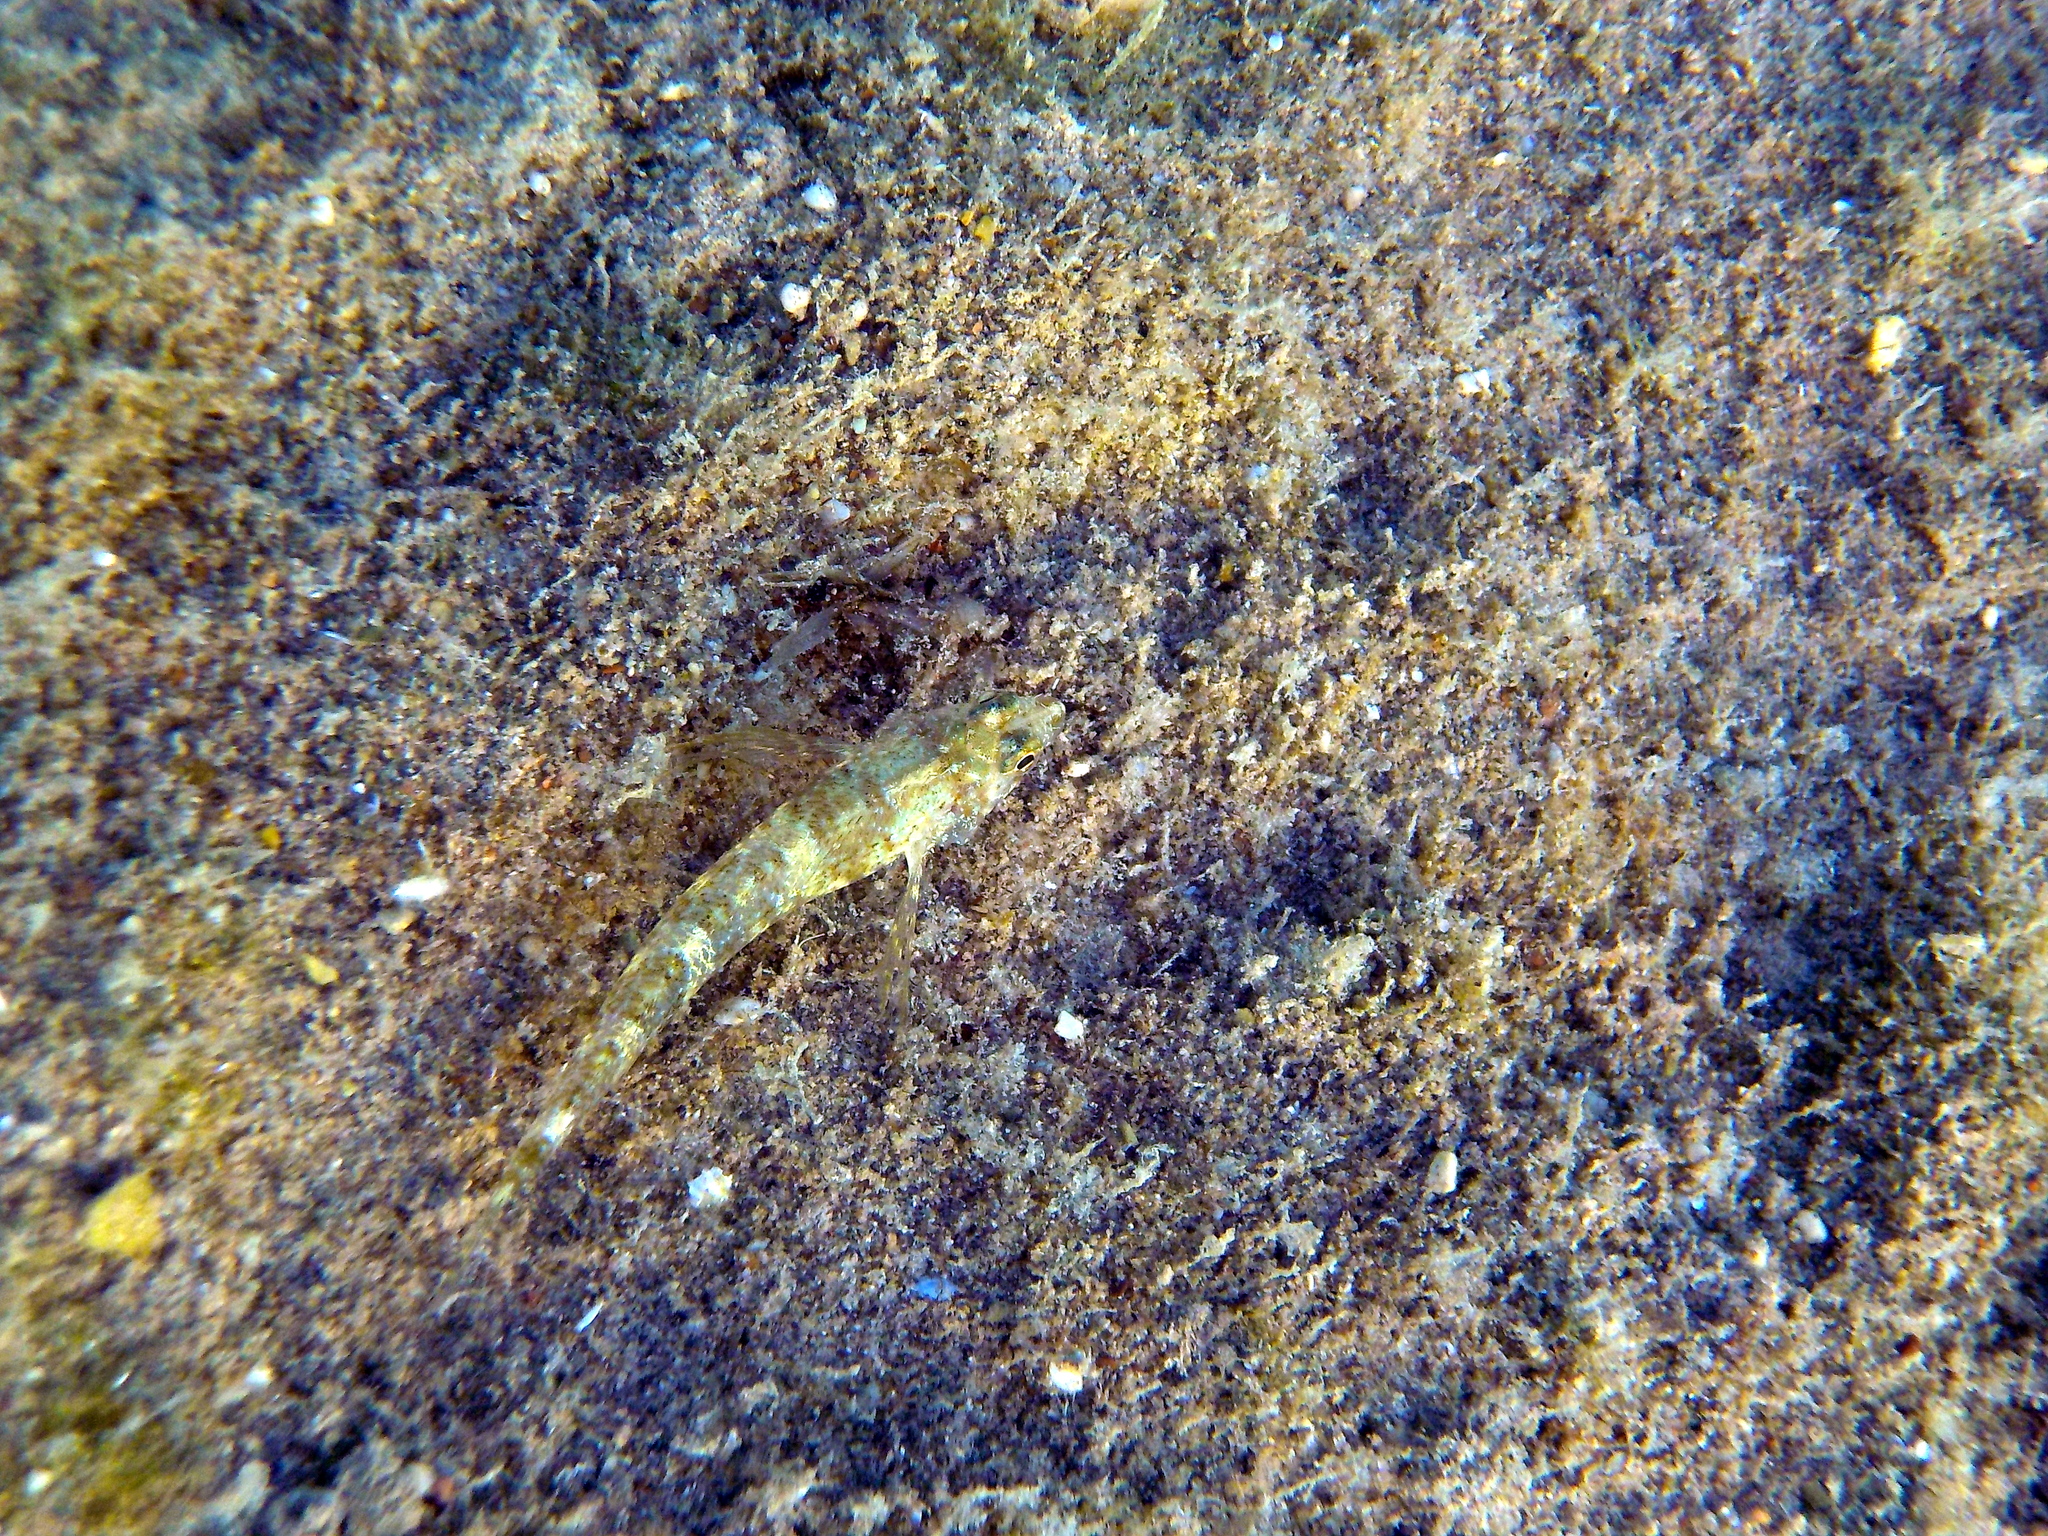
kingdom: Animalia
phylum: Chordata
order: Perciformes
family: Tripterygiidae
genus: Tripterygion
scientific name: Tripterygion tripteronotum
